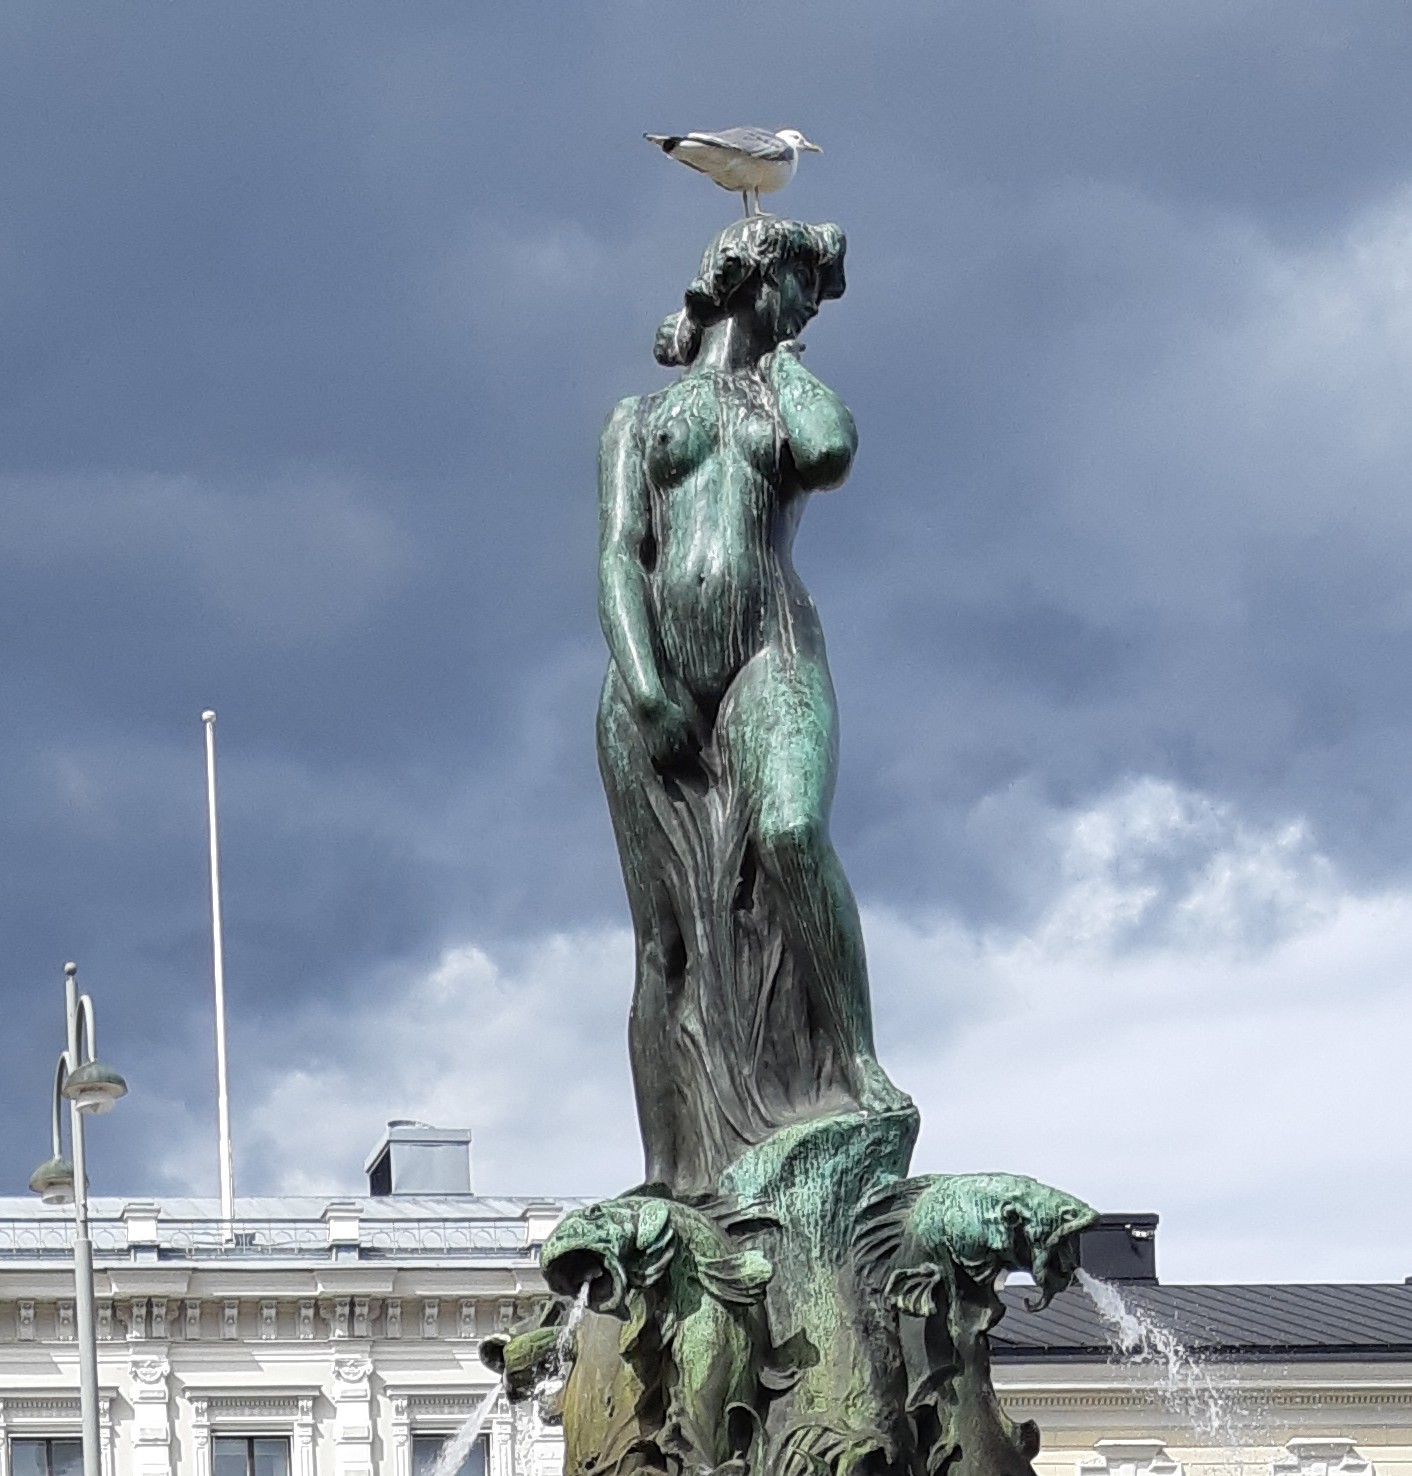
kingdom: Animalia
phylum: Chordata
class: Aves
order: Charadriiformes
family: Laridae
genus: Larus
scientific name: Larus argentatus
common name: Herring gull
